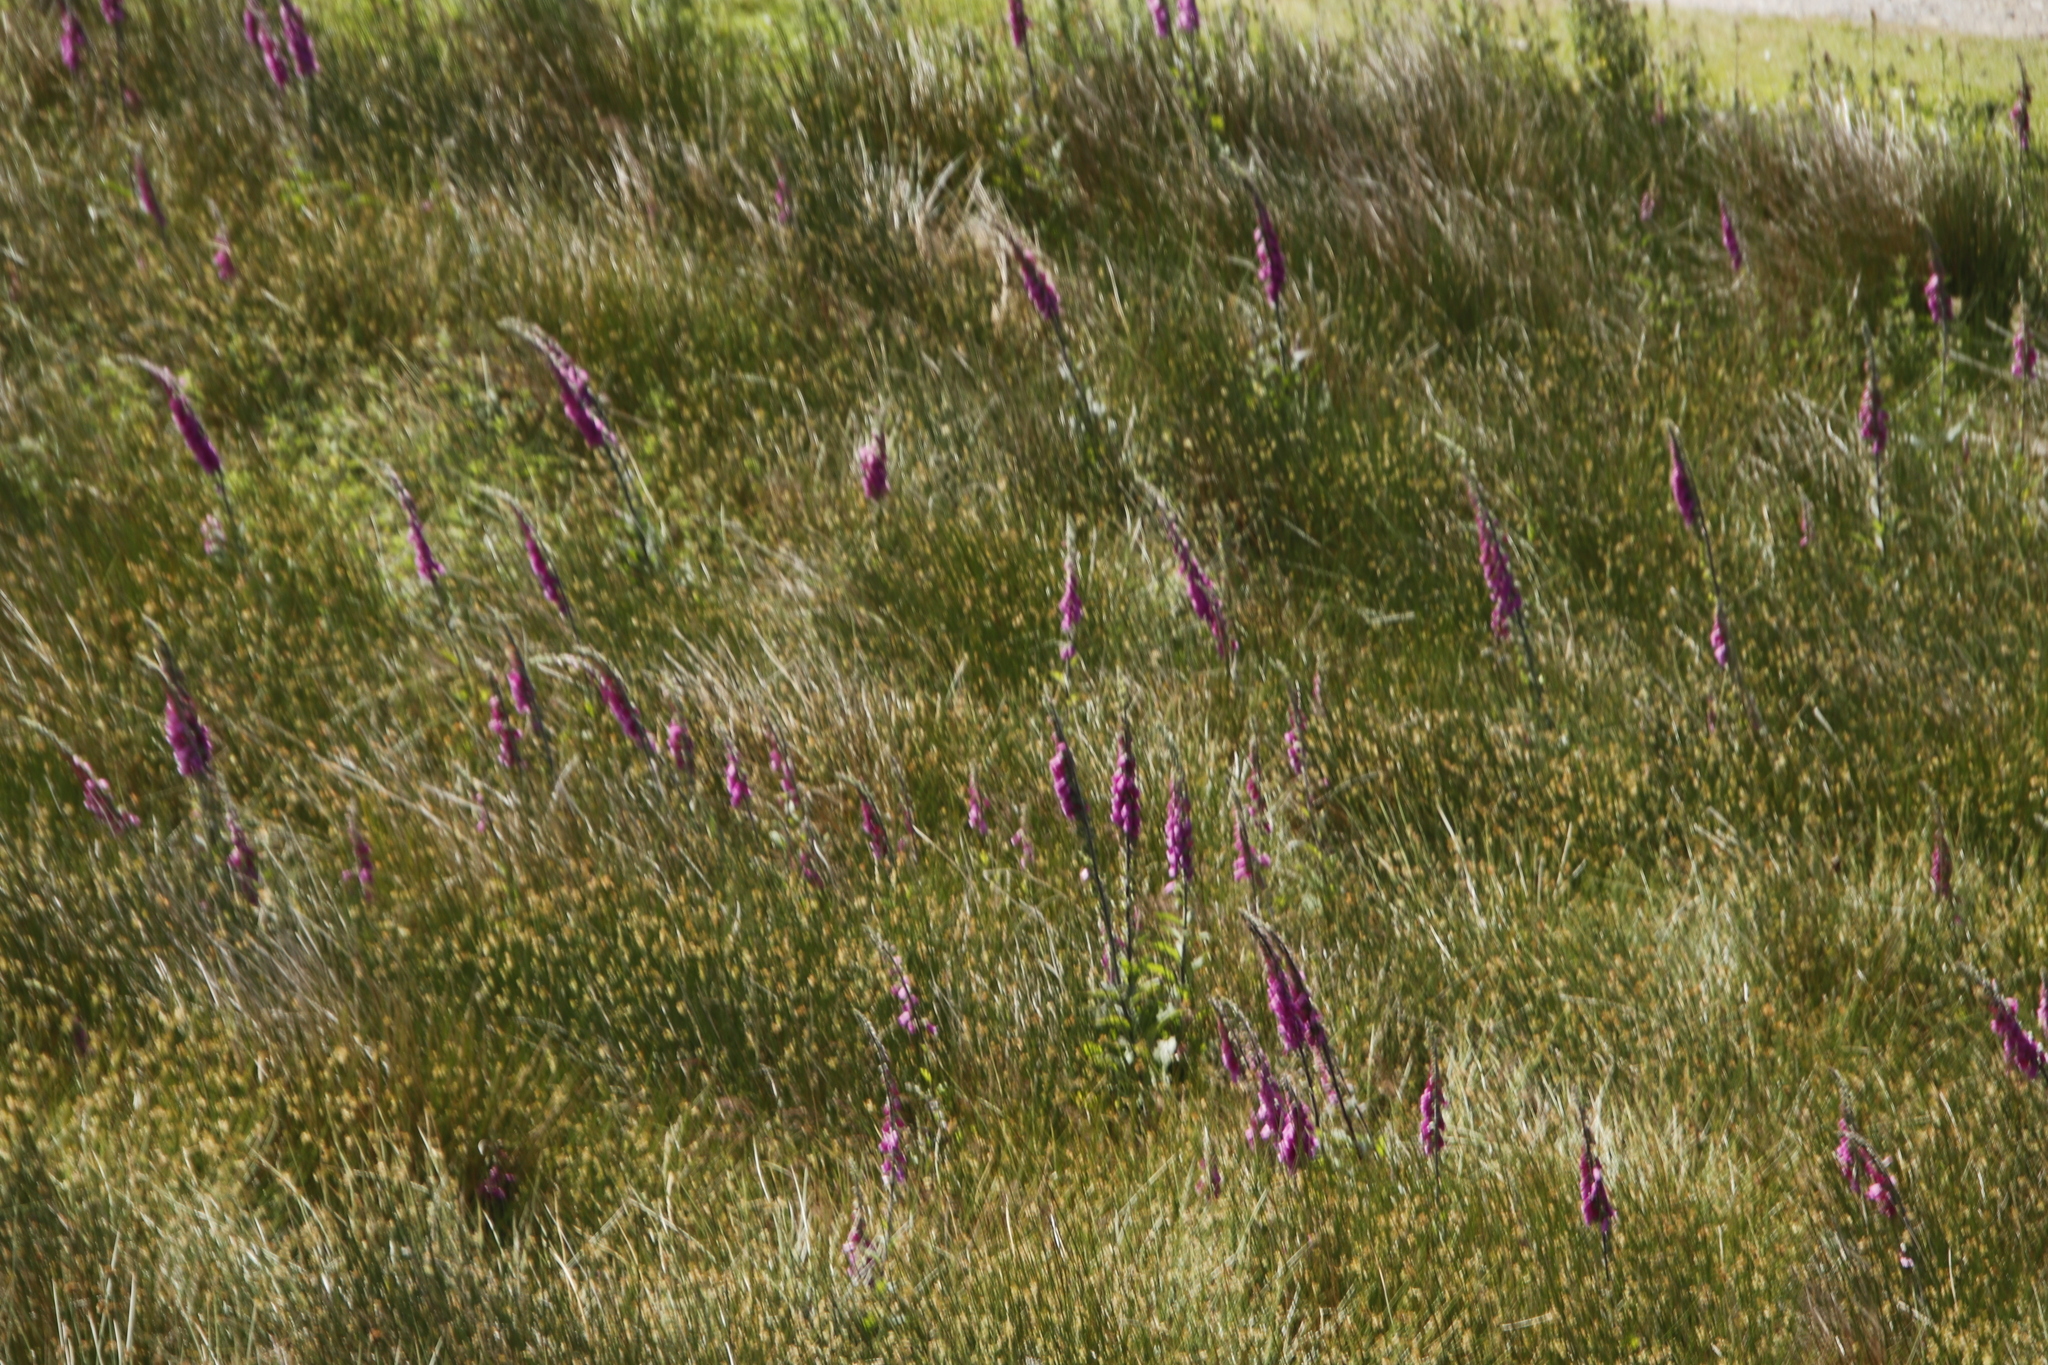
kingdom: Plantae
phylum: Tracheophyta
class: Magnoliopsida
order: Lamiales
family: Plantaginaceae
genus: Digitalis
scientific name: Digitalis purpurea
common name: Foxglove
